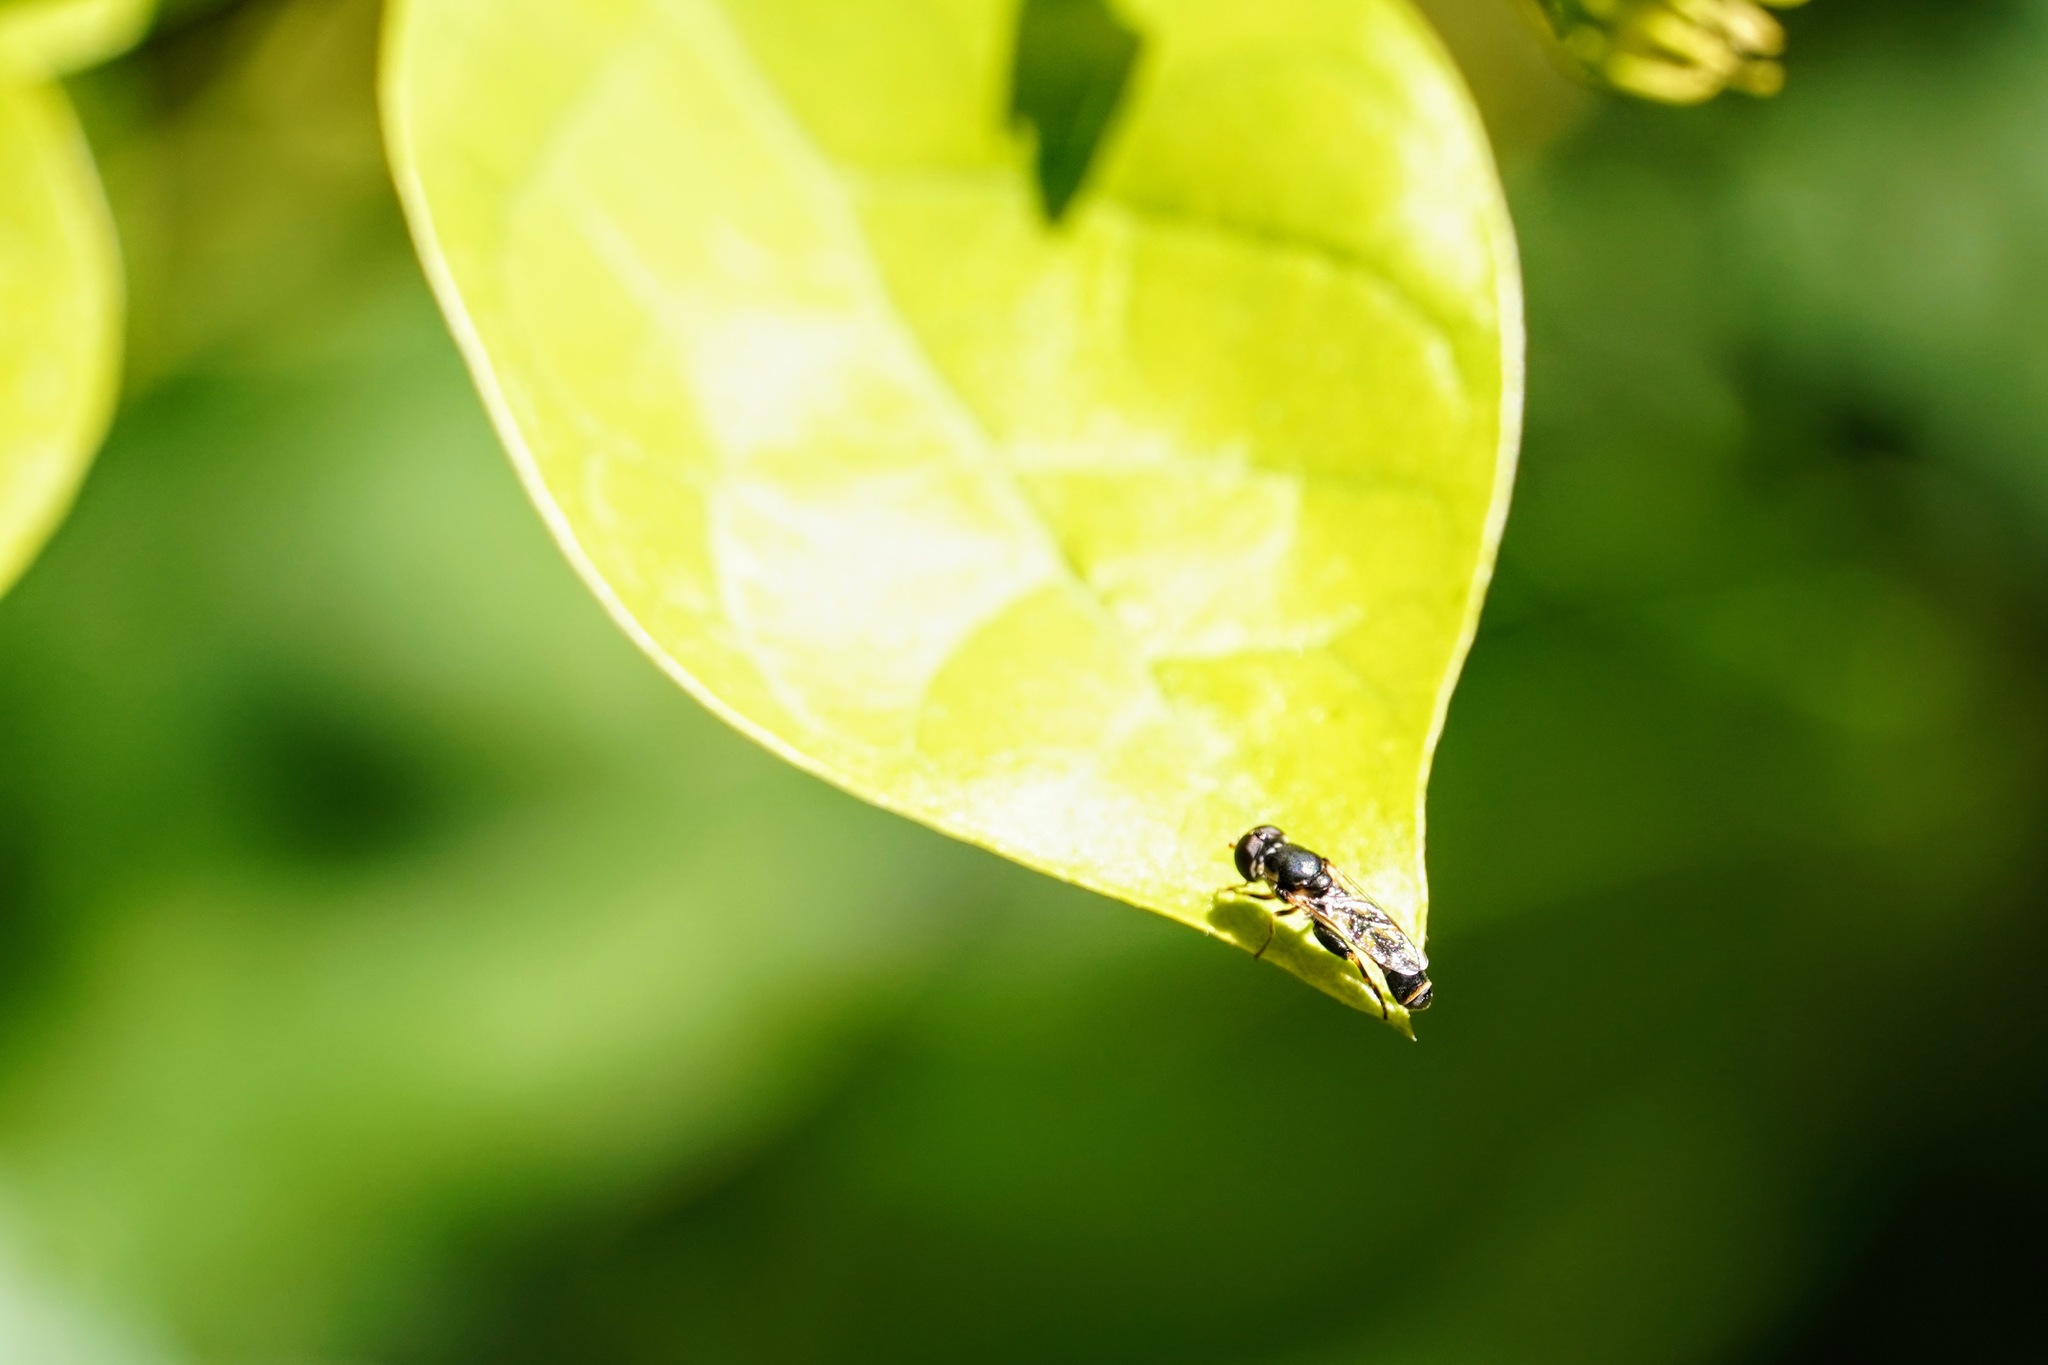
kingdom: Animalia
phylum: Arthropoda
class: Insecta
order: Diptera
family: Syrphidae
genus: Syritta
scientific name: Syritta pipiens
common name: Hover fly
